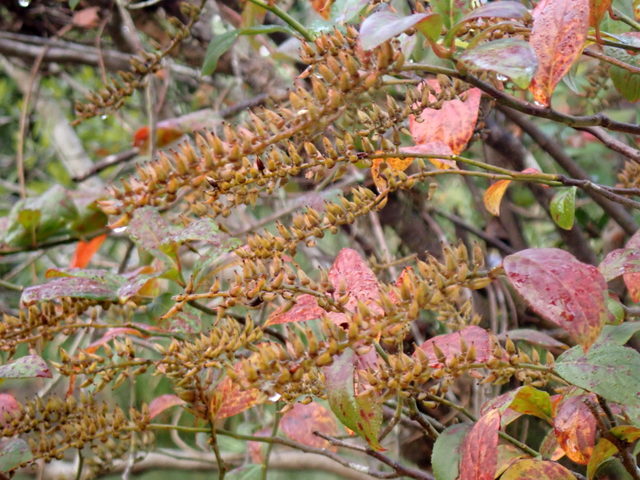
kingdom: Plantae
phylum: Tracheophyta
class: Magnoliopsida
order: Saxifragales
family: Iteaceae
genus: Itea
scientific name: Itea virginica
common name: Sweetspire
